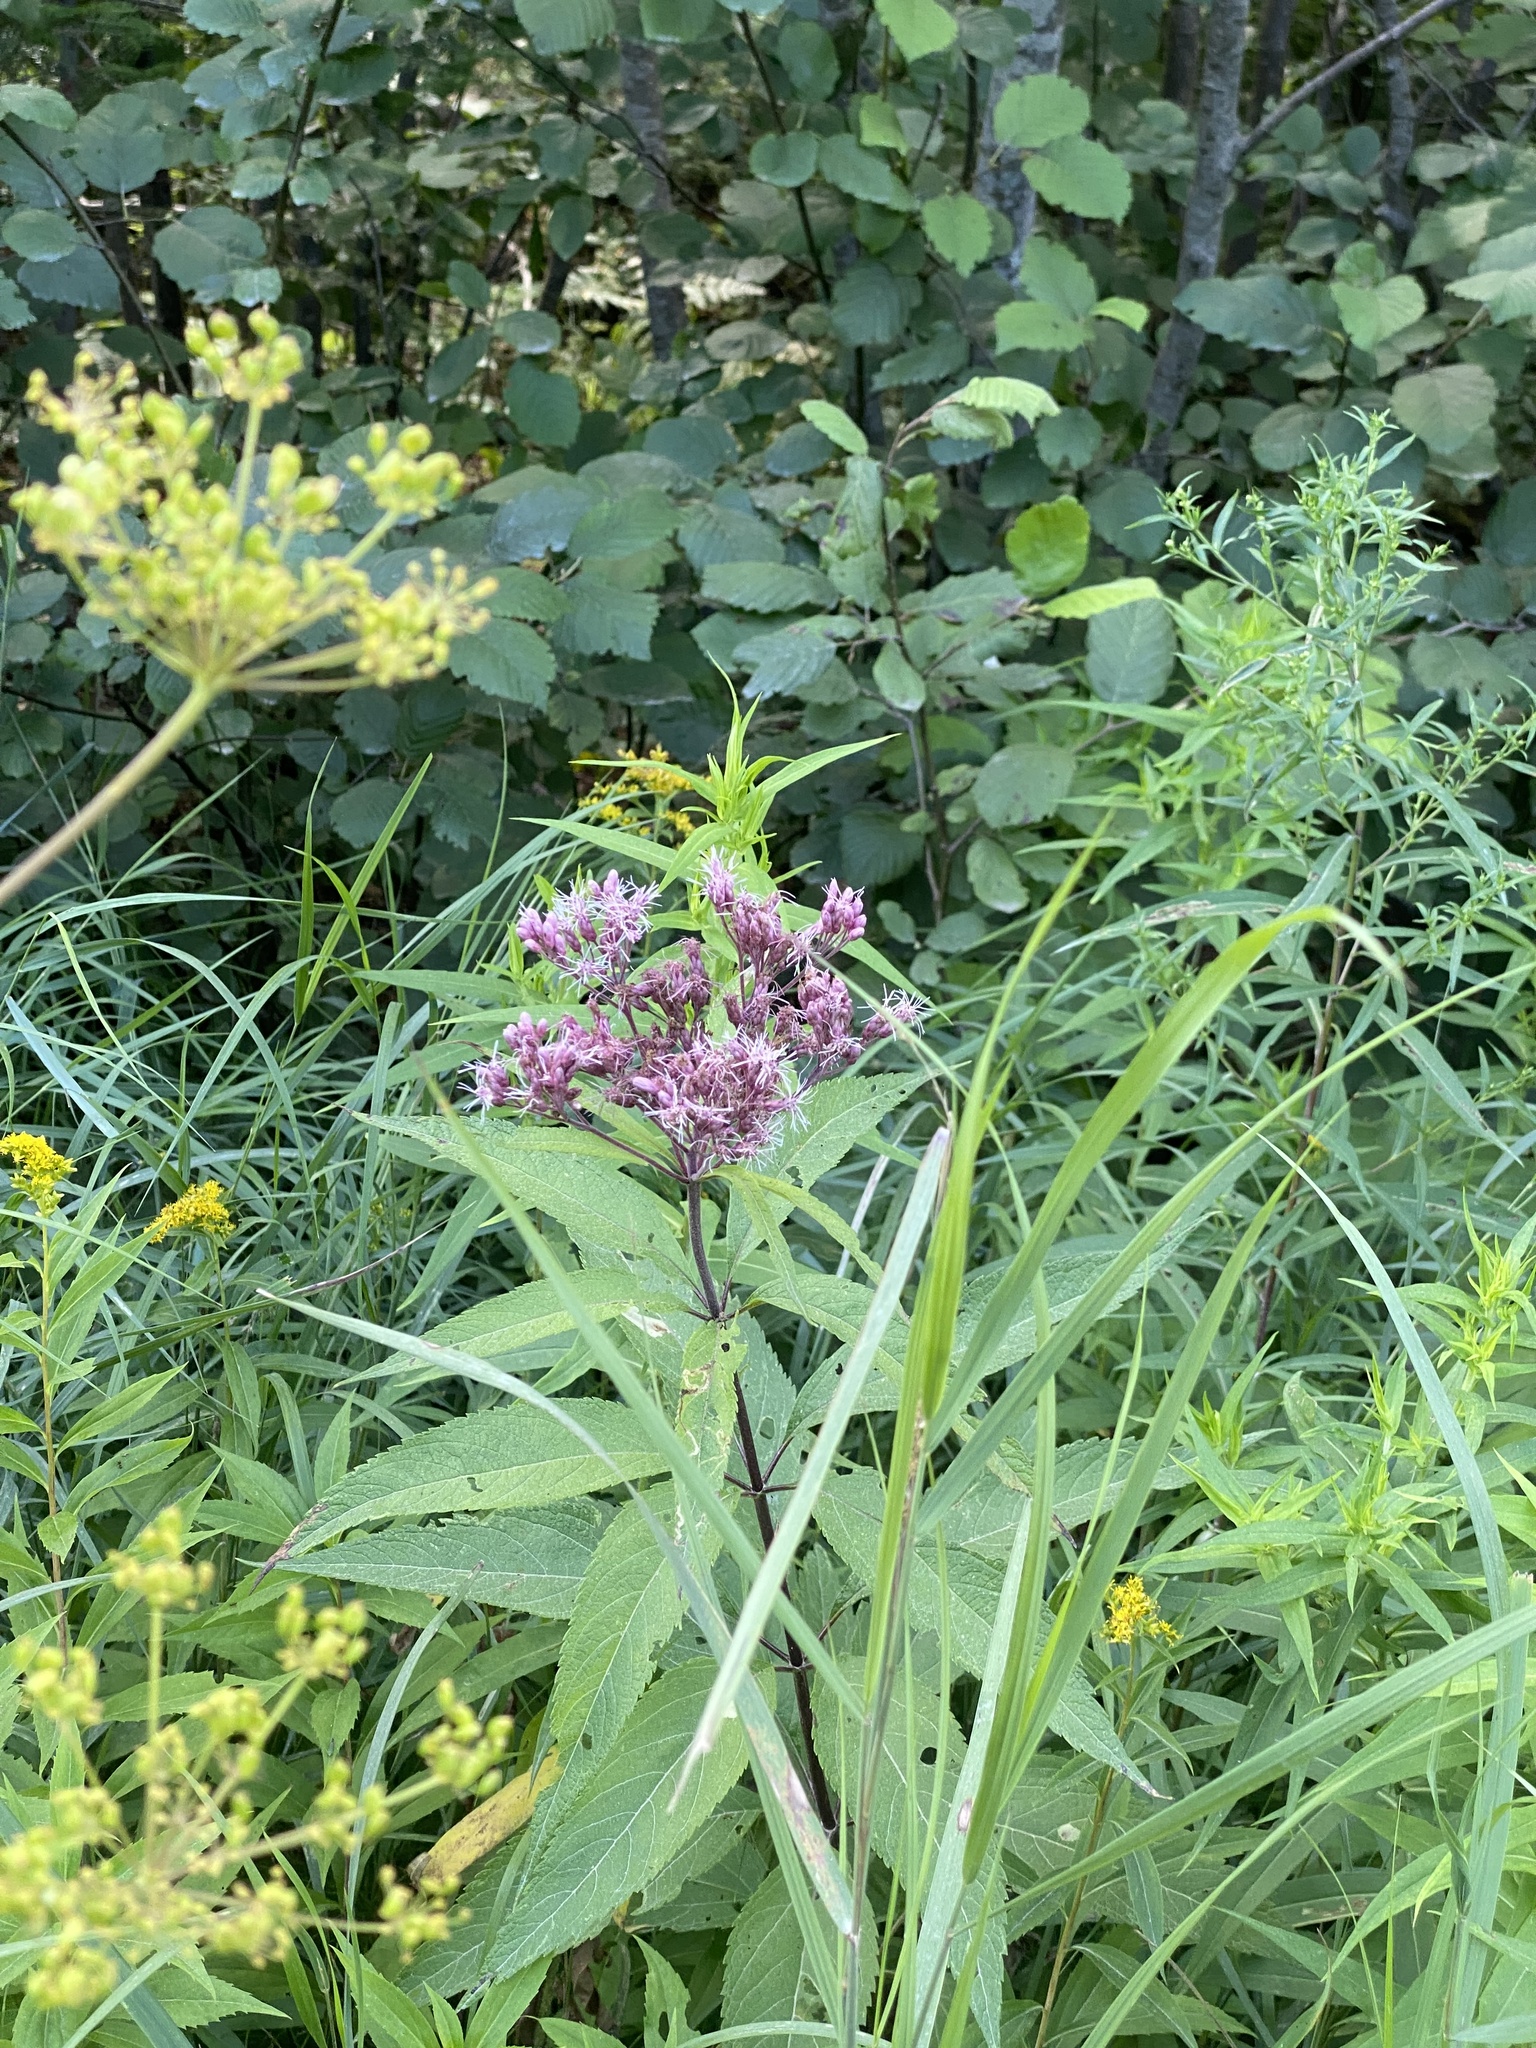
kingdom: Plantae
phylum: Tracheophyta
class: Magnoliopsida
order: Asterales
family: Asteraceae
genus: Eutrochium
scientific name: Eutrochium maculatum
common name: Spotted joe pye weed
